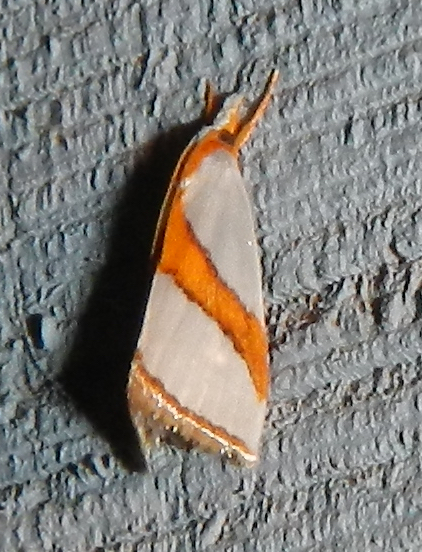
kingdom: Animalia
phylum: Arthropoda
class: Insecta
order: Lepidoptera
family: Crambidae
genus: Vaxi
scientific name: Vaxi critica
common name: Straight-lined vaxi moth
